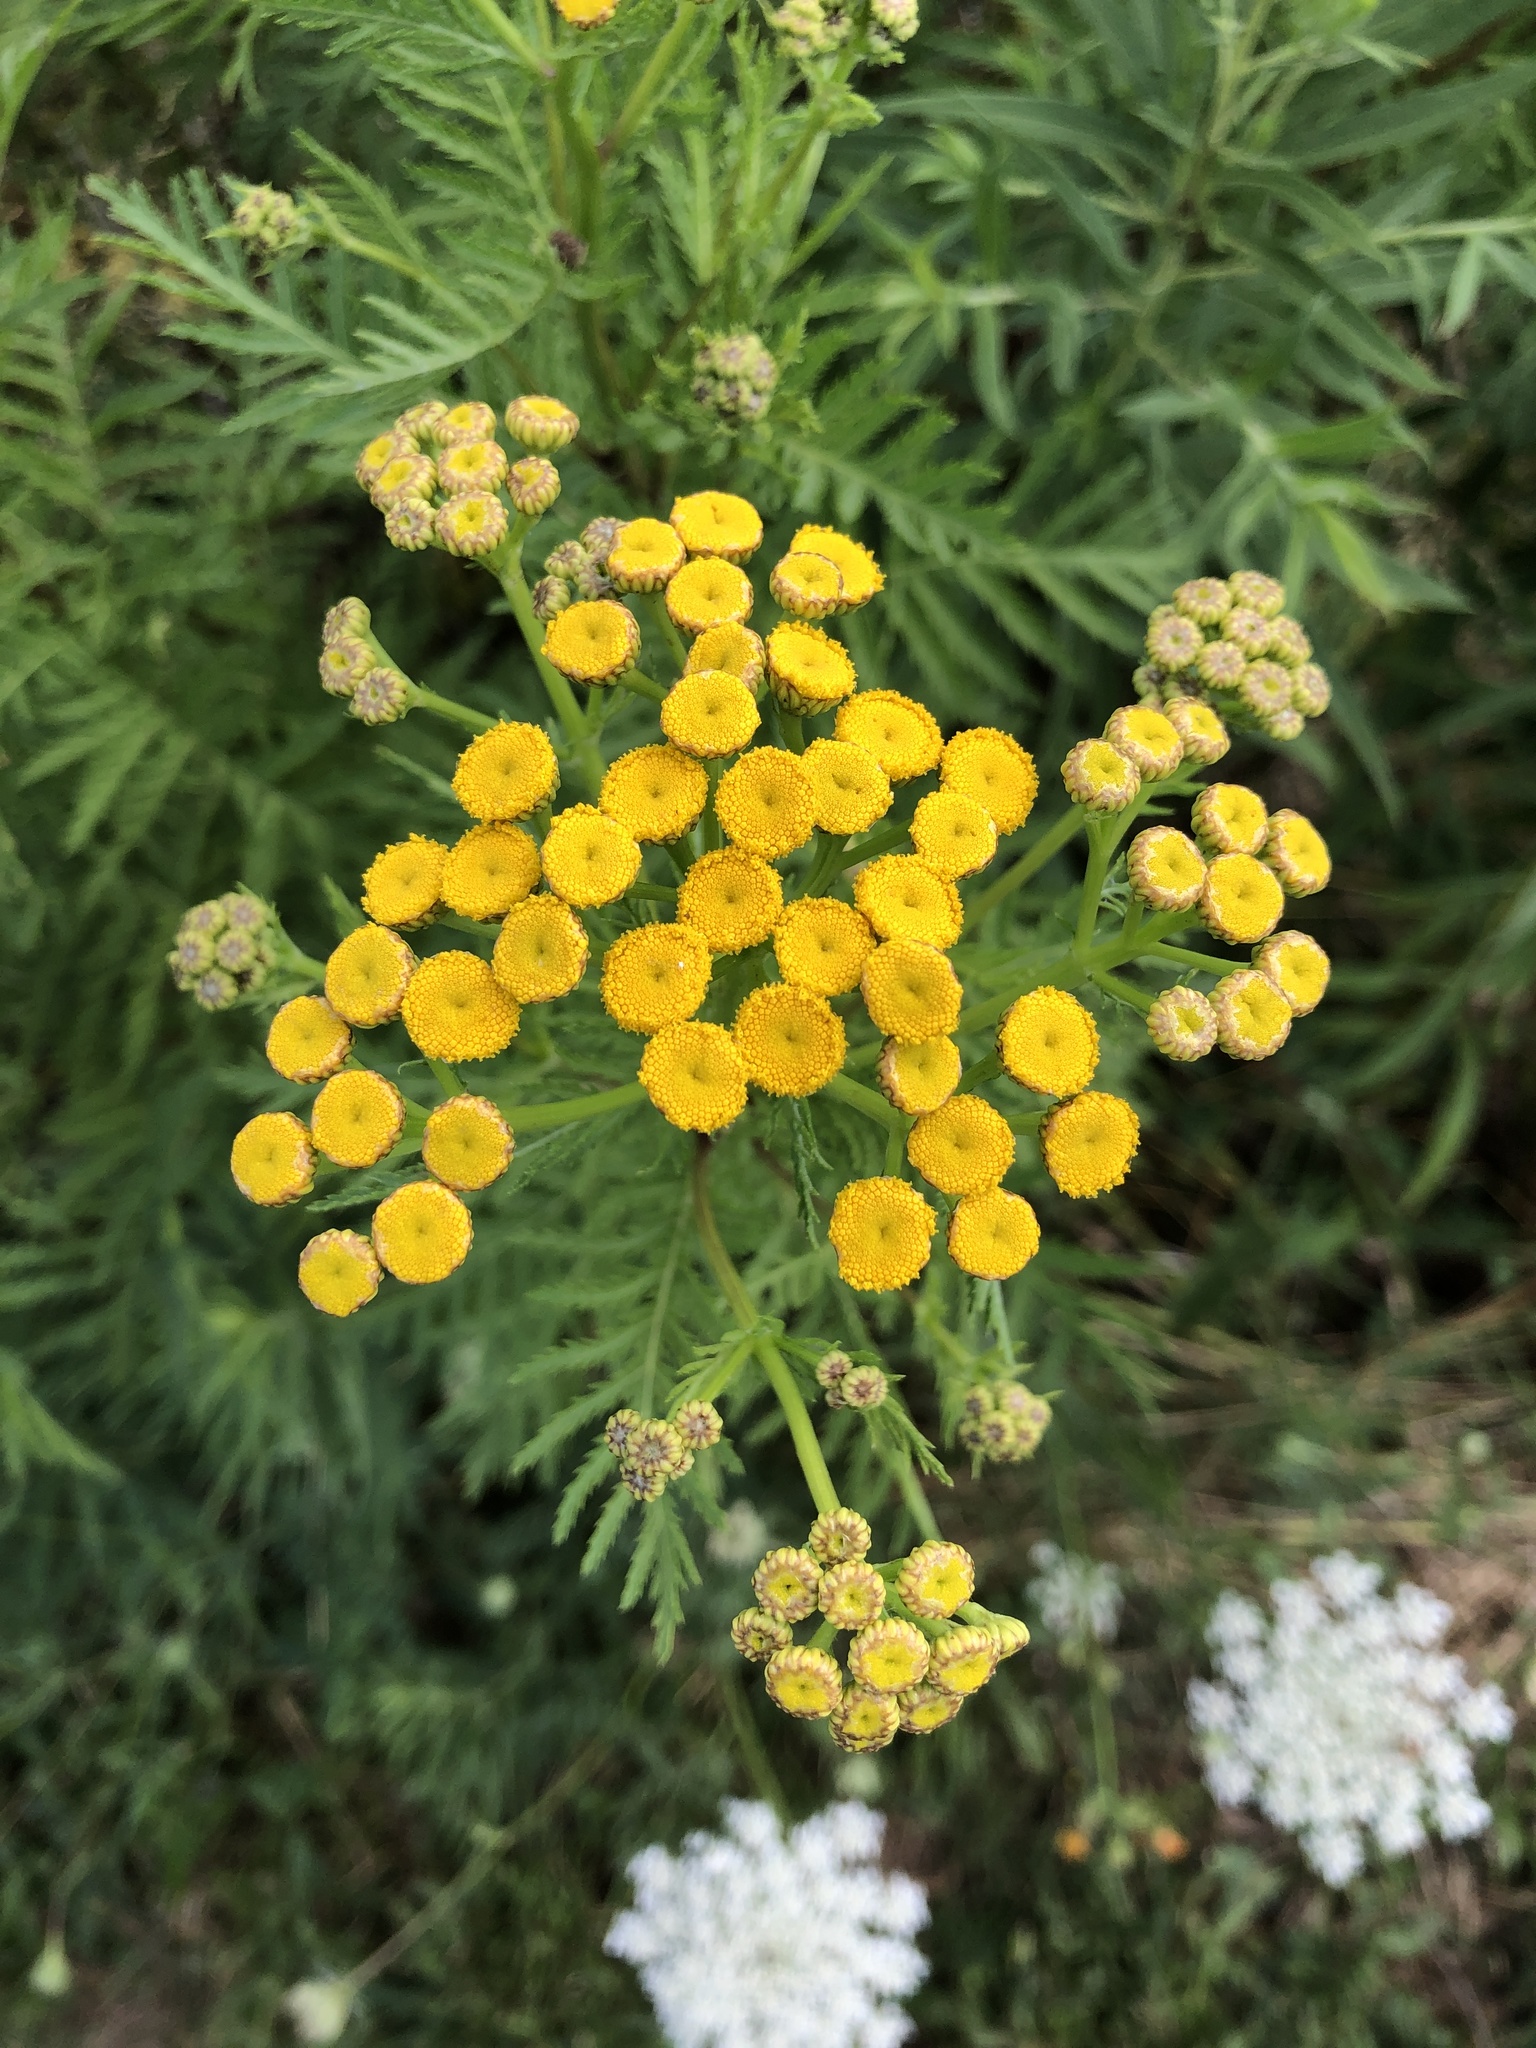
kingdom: Plantae
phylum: Tracheophyta
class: Magnoliopsida
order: Asterales
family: Asteraceae
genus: Tanacetum
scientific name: Tanacetum vulgare
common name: Common tansy
